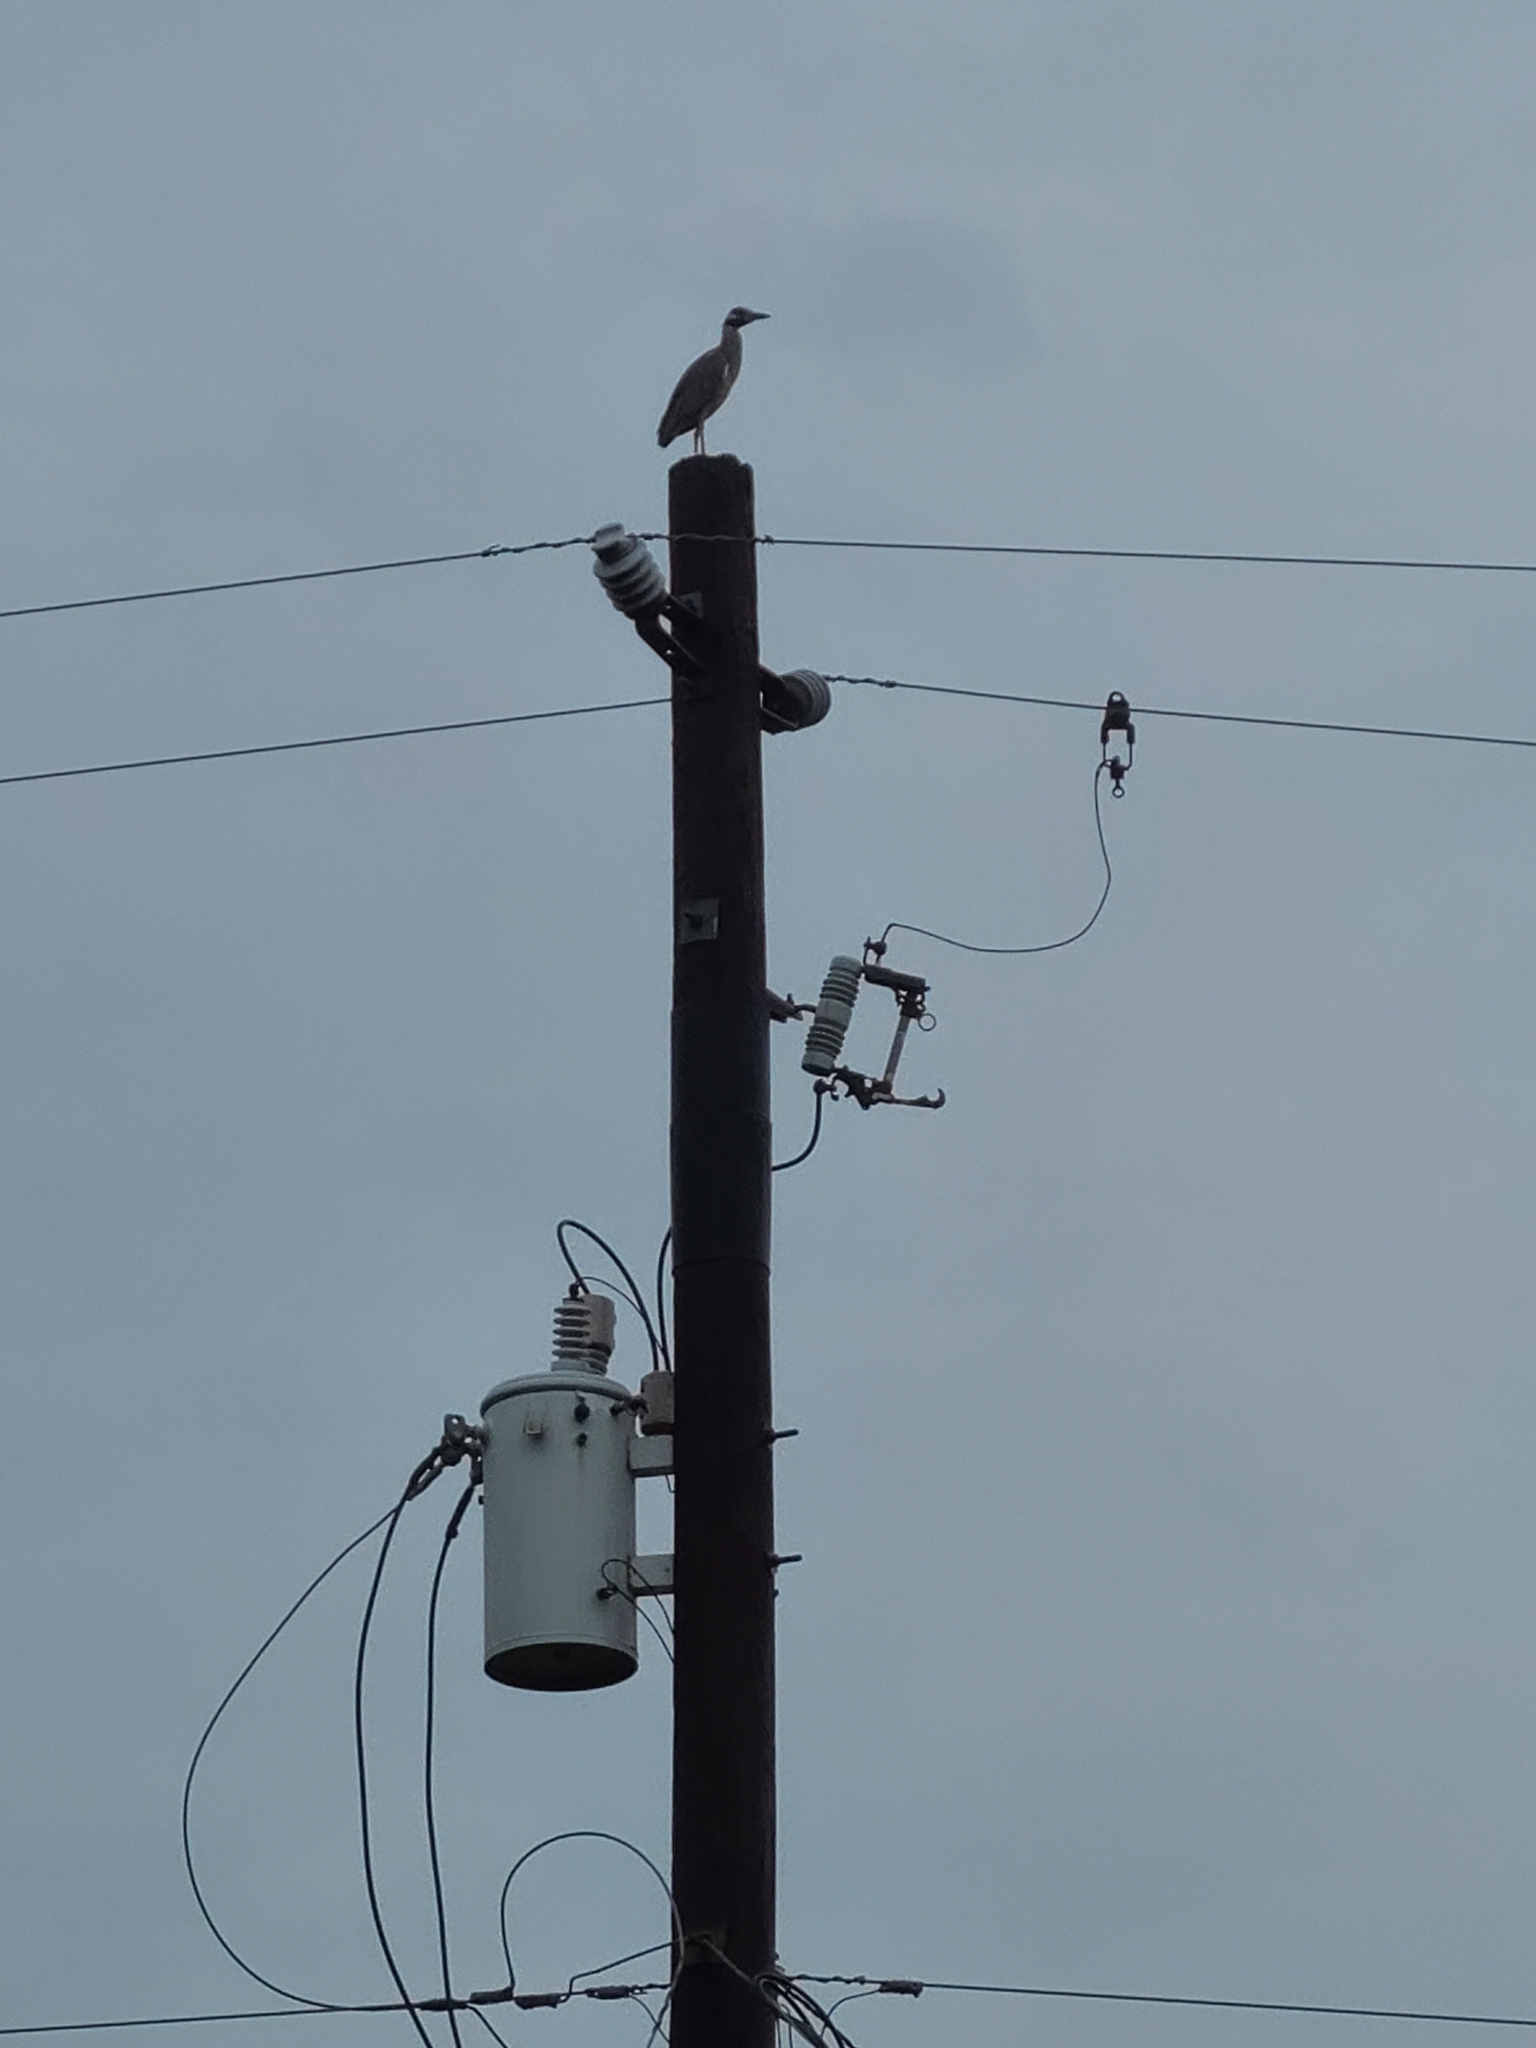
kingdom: Animalia
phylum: Chordata
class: Aves
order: Pelecaniformes
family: Ardeidae
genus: Nyctanassa
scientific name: Nyctanassa violacea
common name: Yellow-crowned night heron
